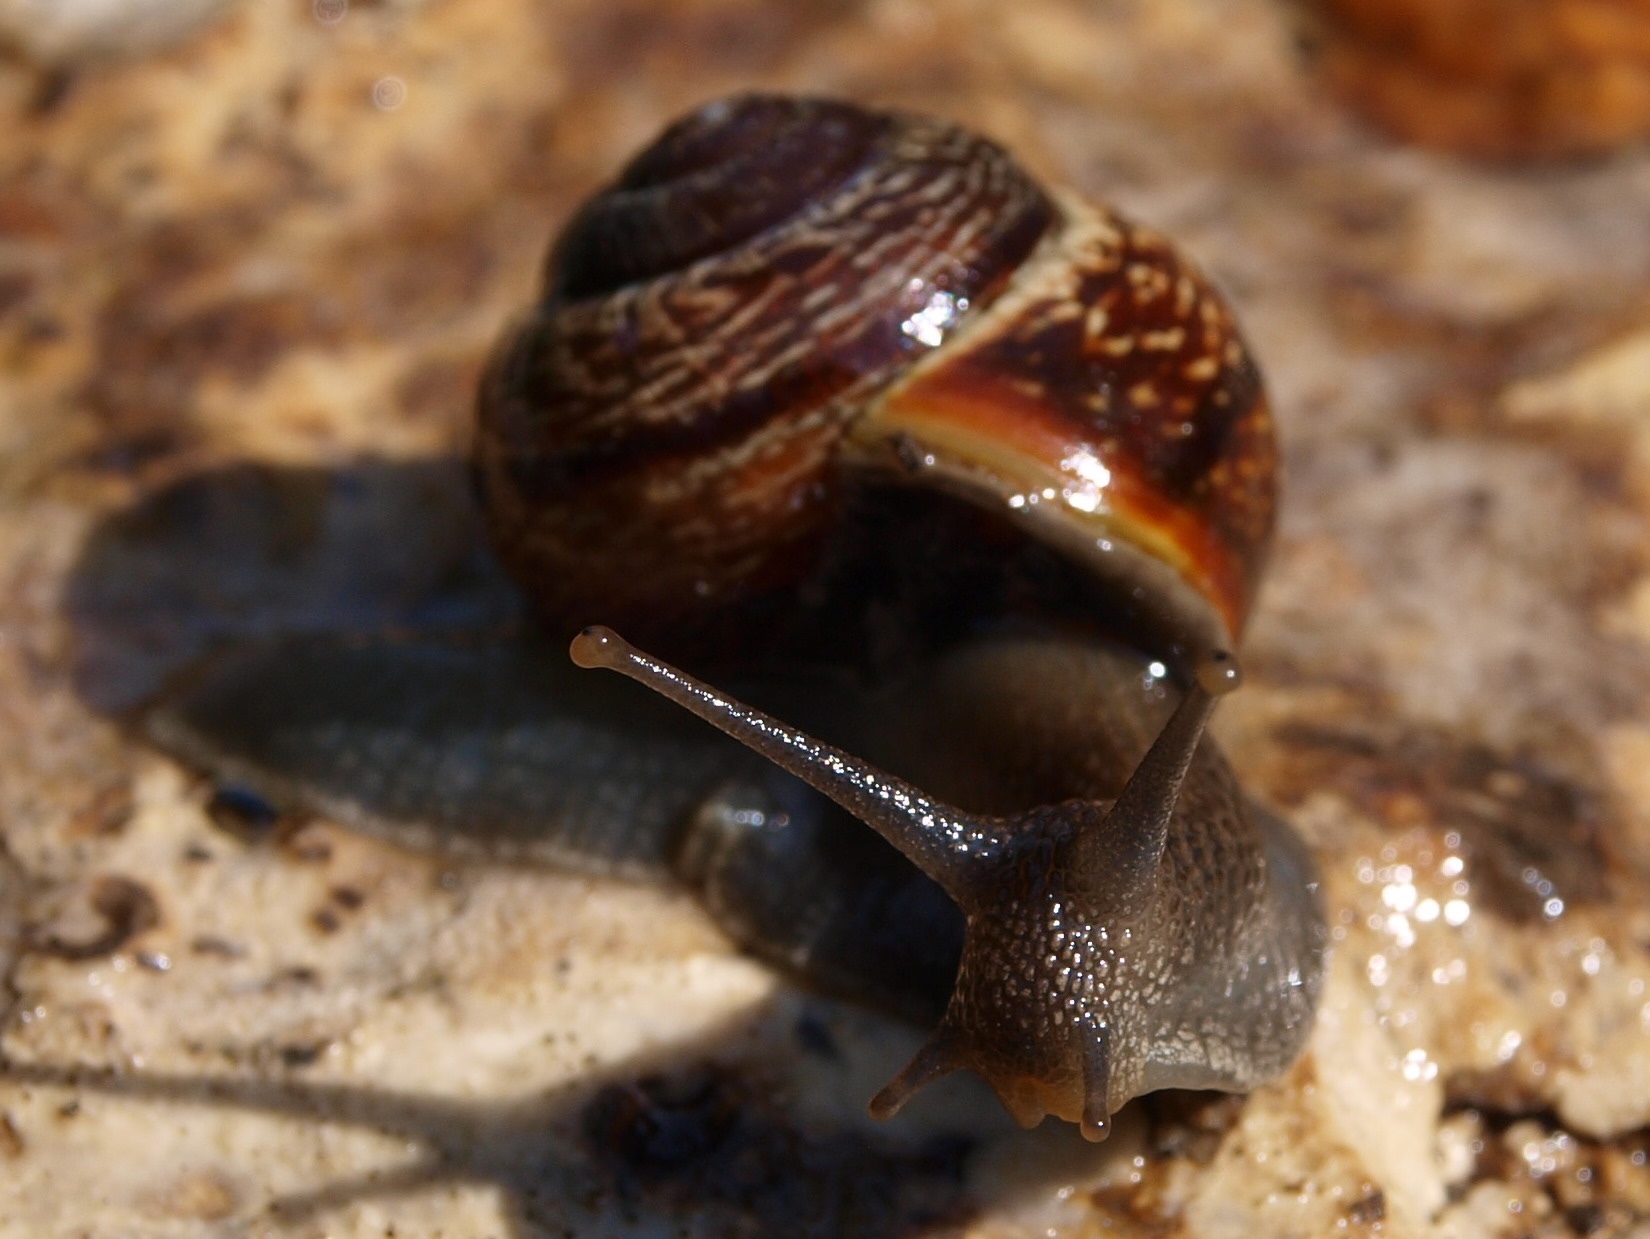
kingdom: Animalia
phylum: Mollusca
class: Gastropoda
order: Stylommatophora
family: Helicidae
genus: Arianta
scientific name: Arianta arbustorum
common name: Copse snail
